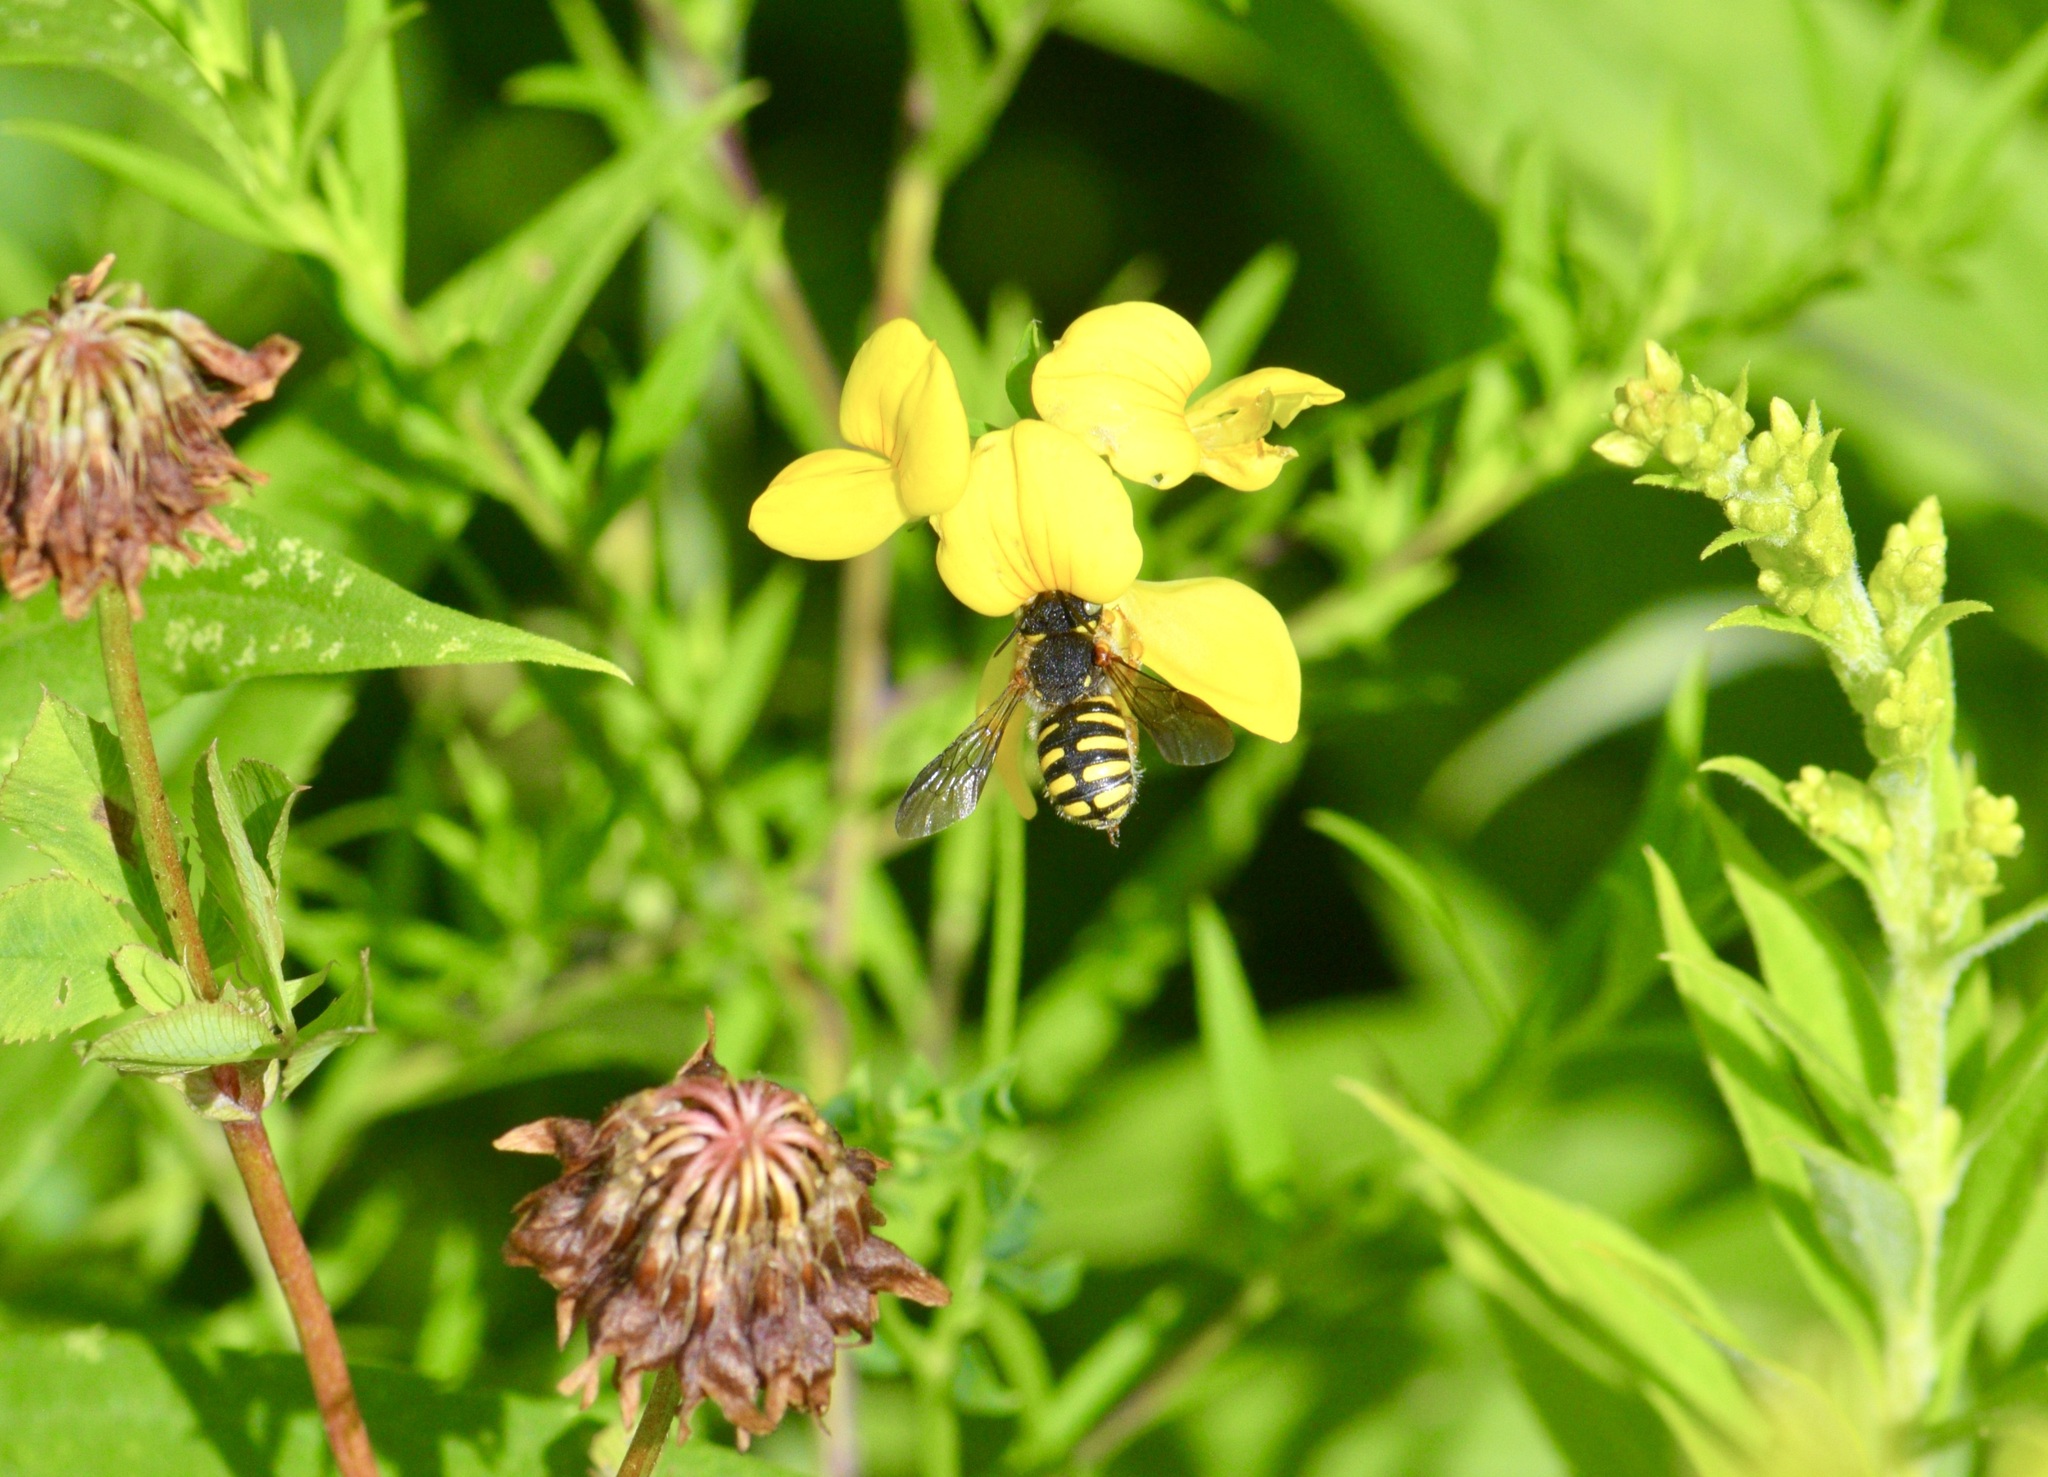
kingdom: Animalia
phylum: Arthropoda
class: Insecta
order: Hymenoptera
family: Megachilidae
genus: Anthidium
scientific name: Anthidium oblongatum
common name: Oblong wool carder bee
